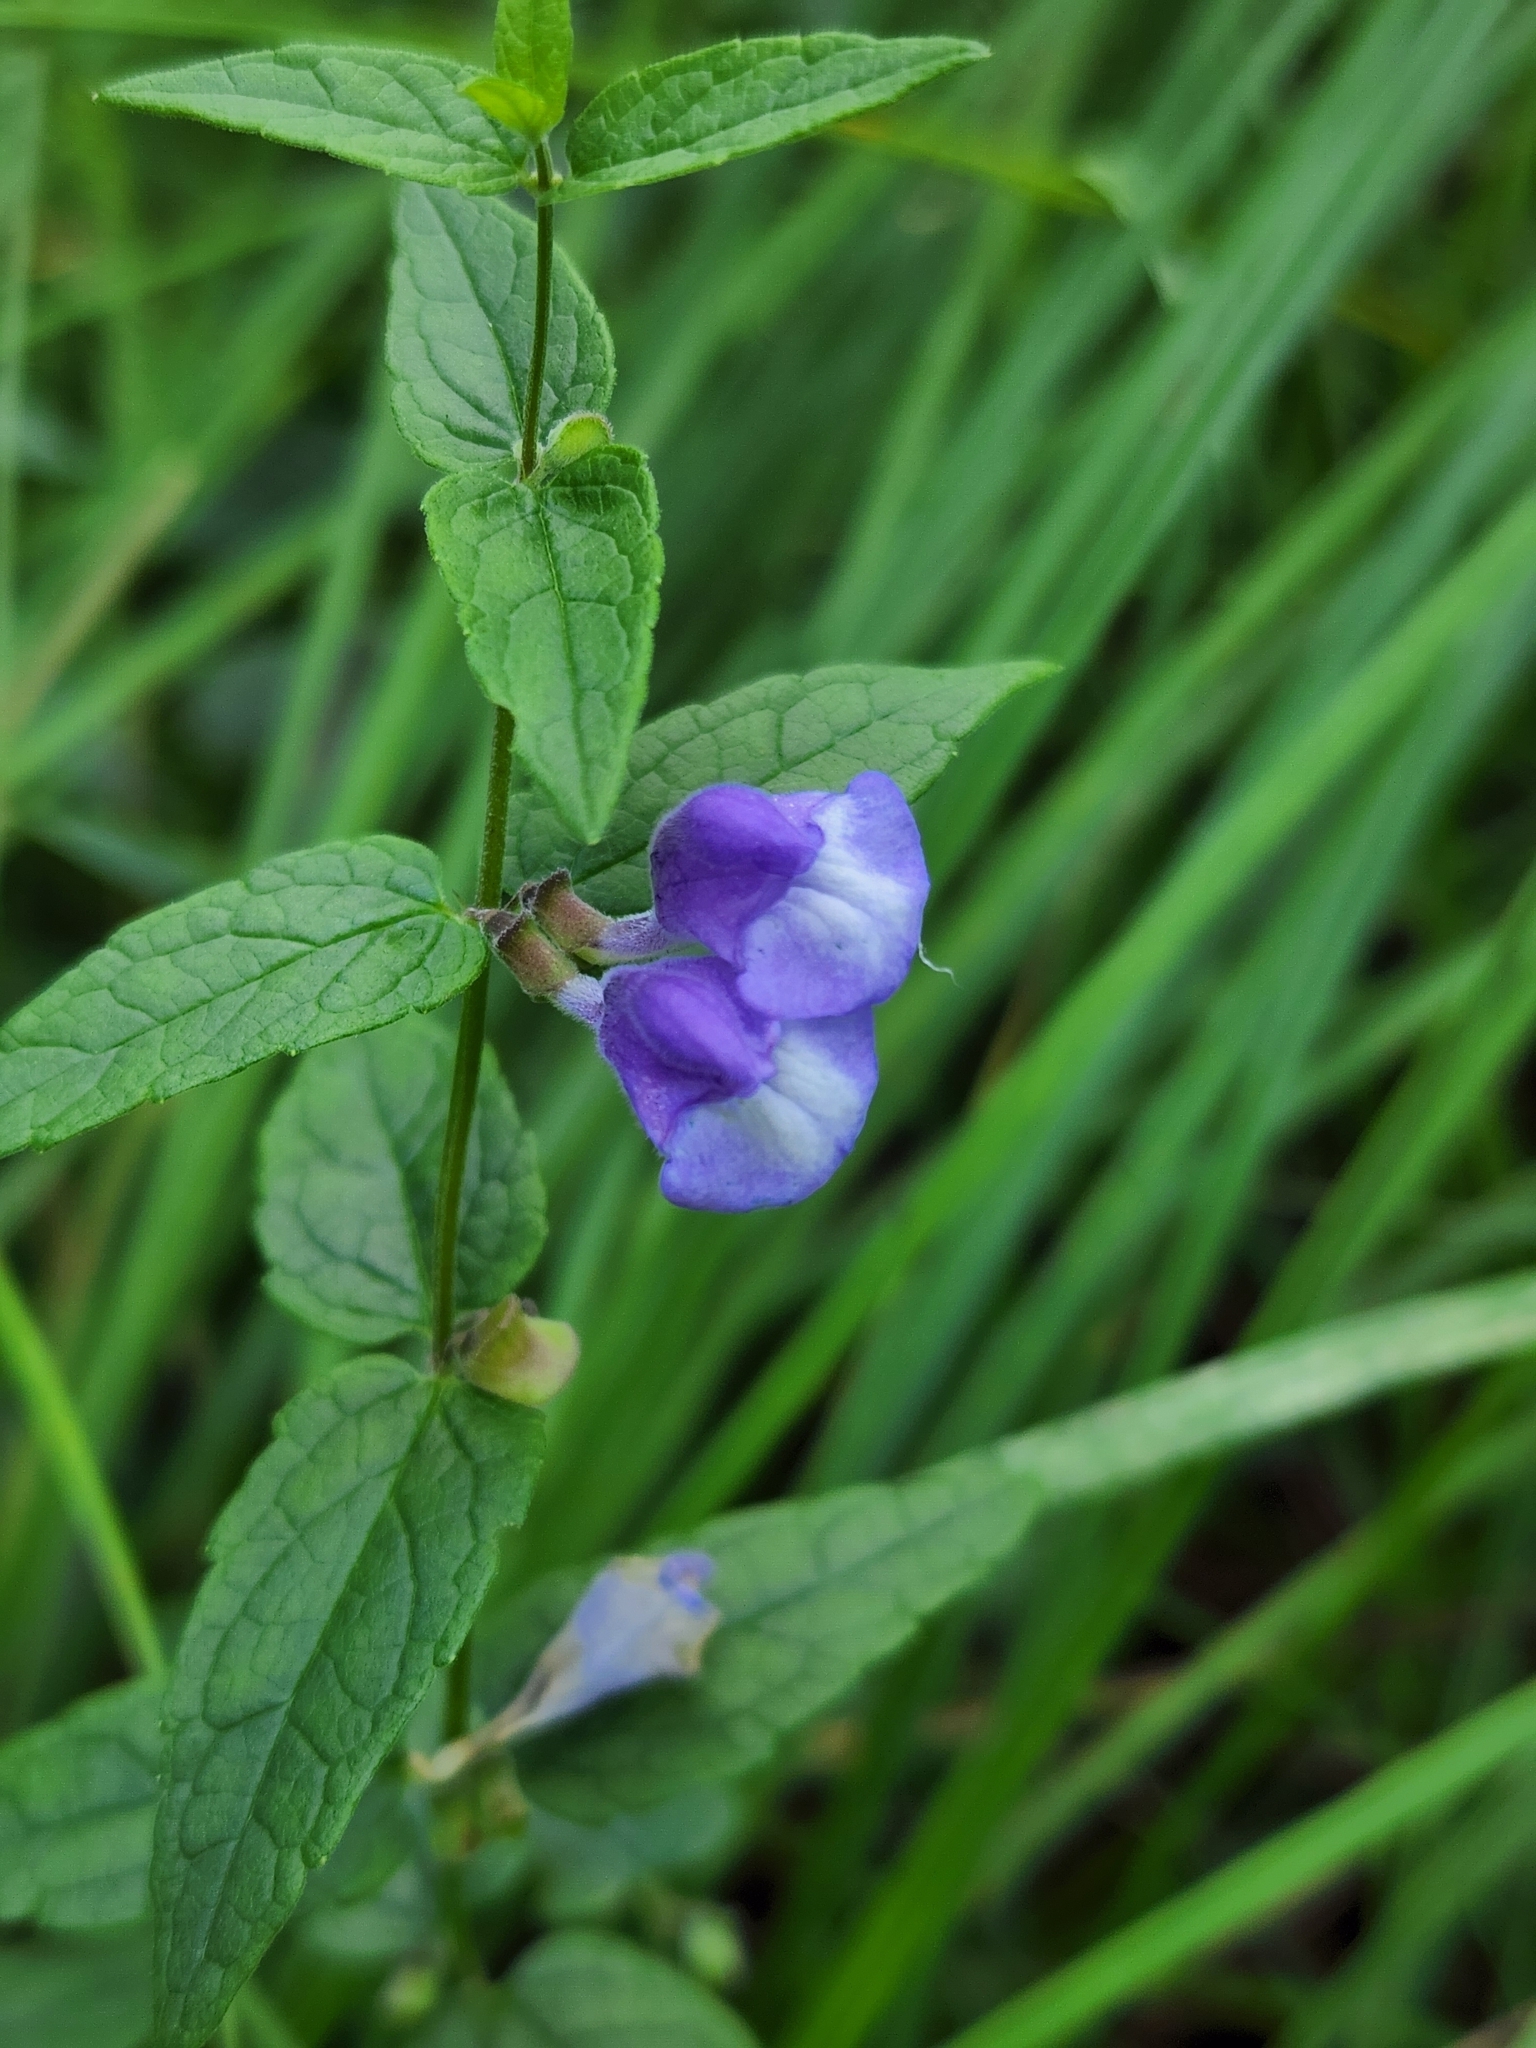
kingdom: Plantae
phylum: Tracheophyta
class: Magnoliopsida
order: Lamiales
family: Lamiaceae
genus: Scutellaria
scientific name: Scutellaria galericulata
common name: Skullcap
